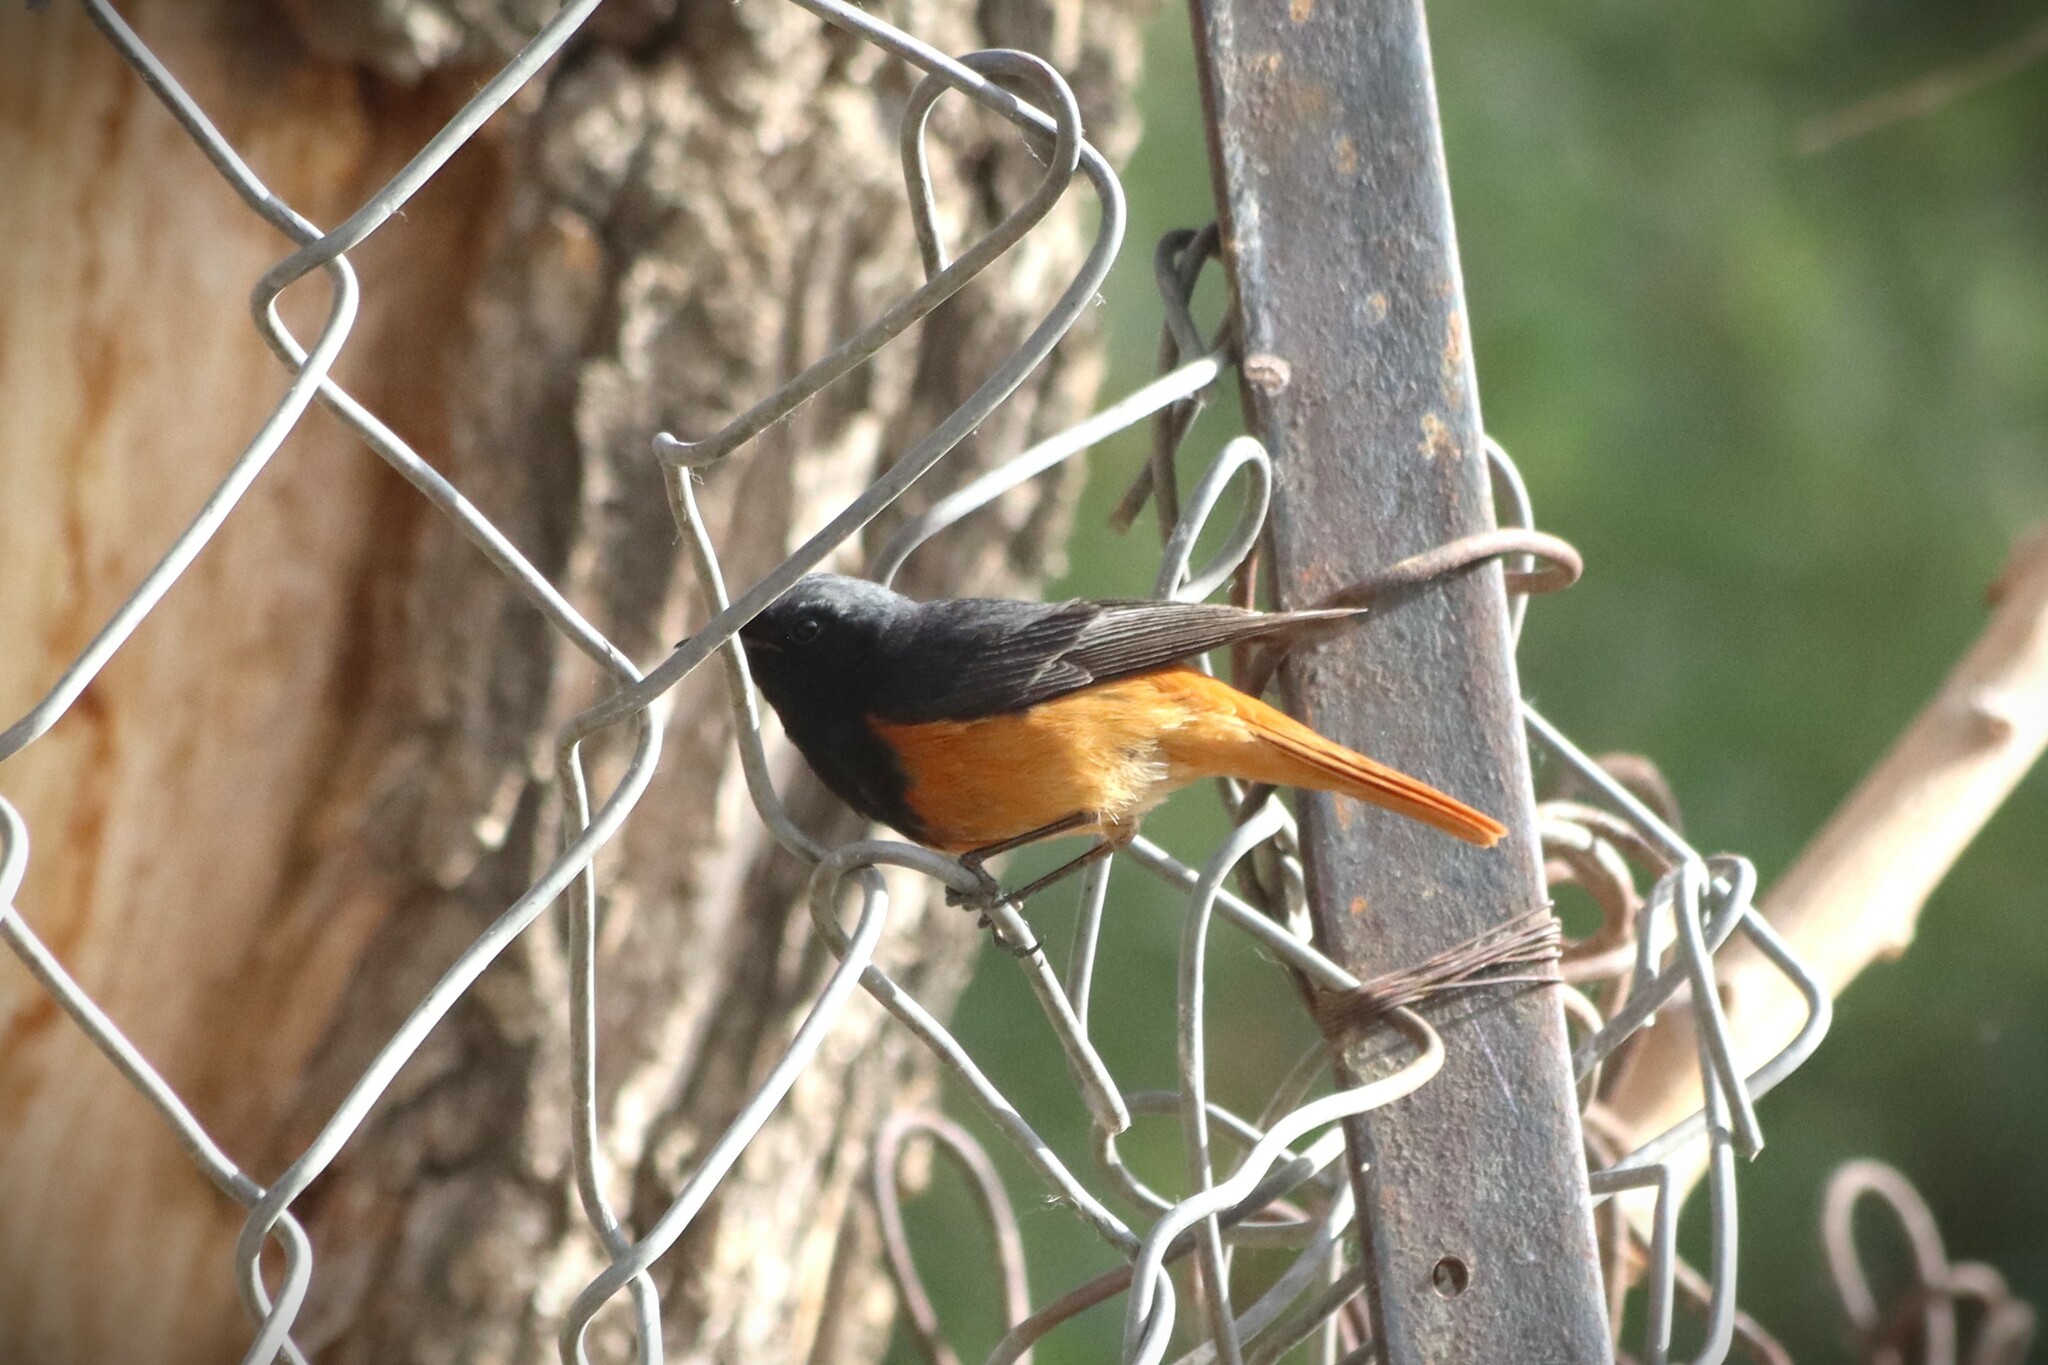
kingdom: Animalia
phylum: Chordata
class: Aves
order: Passeriformes
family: Muscicapidae
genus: Phoenicurus
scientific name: Phoenicurus ochruros
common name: Black redstart
